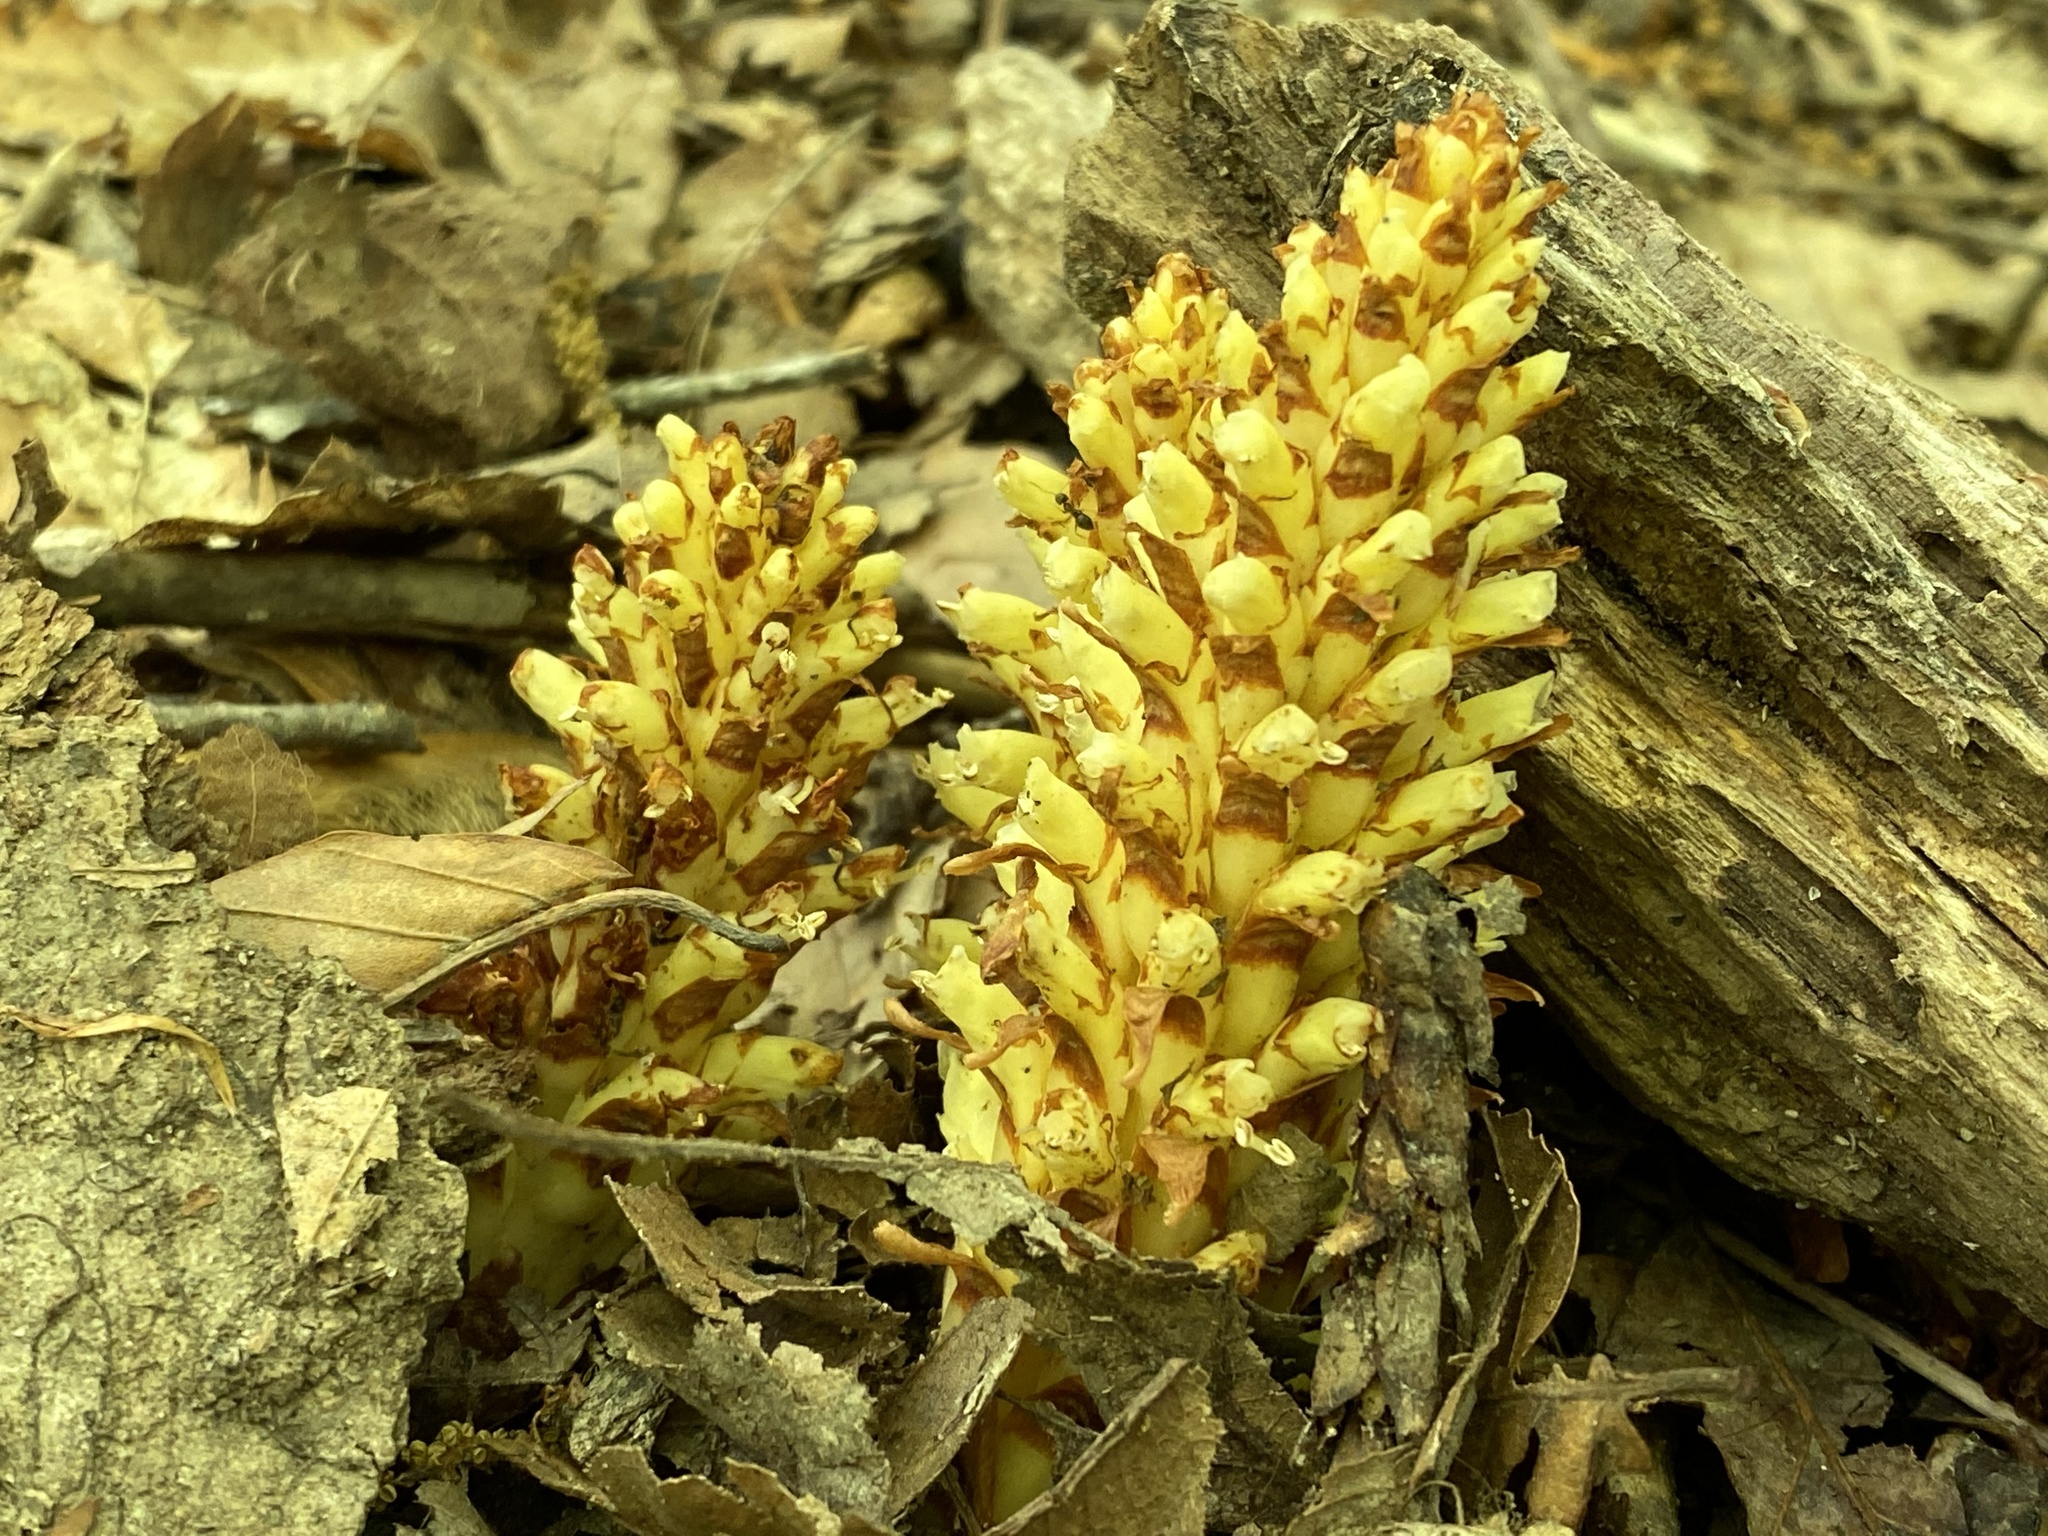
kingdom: Plantae
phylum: Tracheophyta
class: Magnoliopsida
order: Lamiales
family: Orobanchaceae
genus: Conopholis
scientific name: Conopholis americana
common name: American cancer-root
